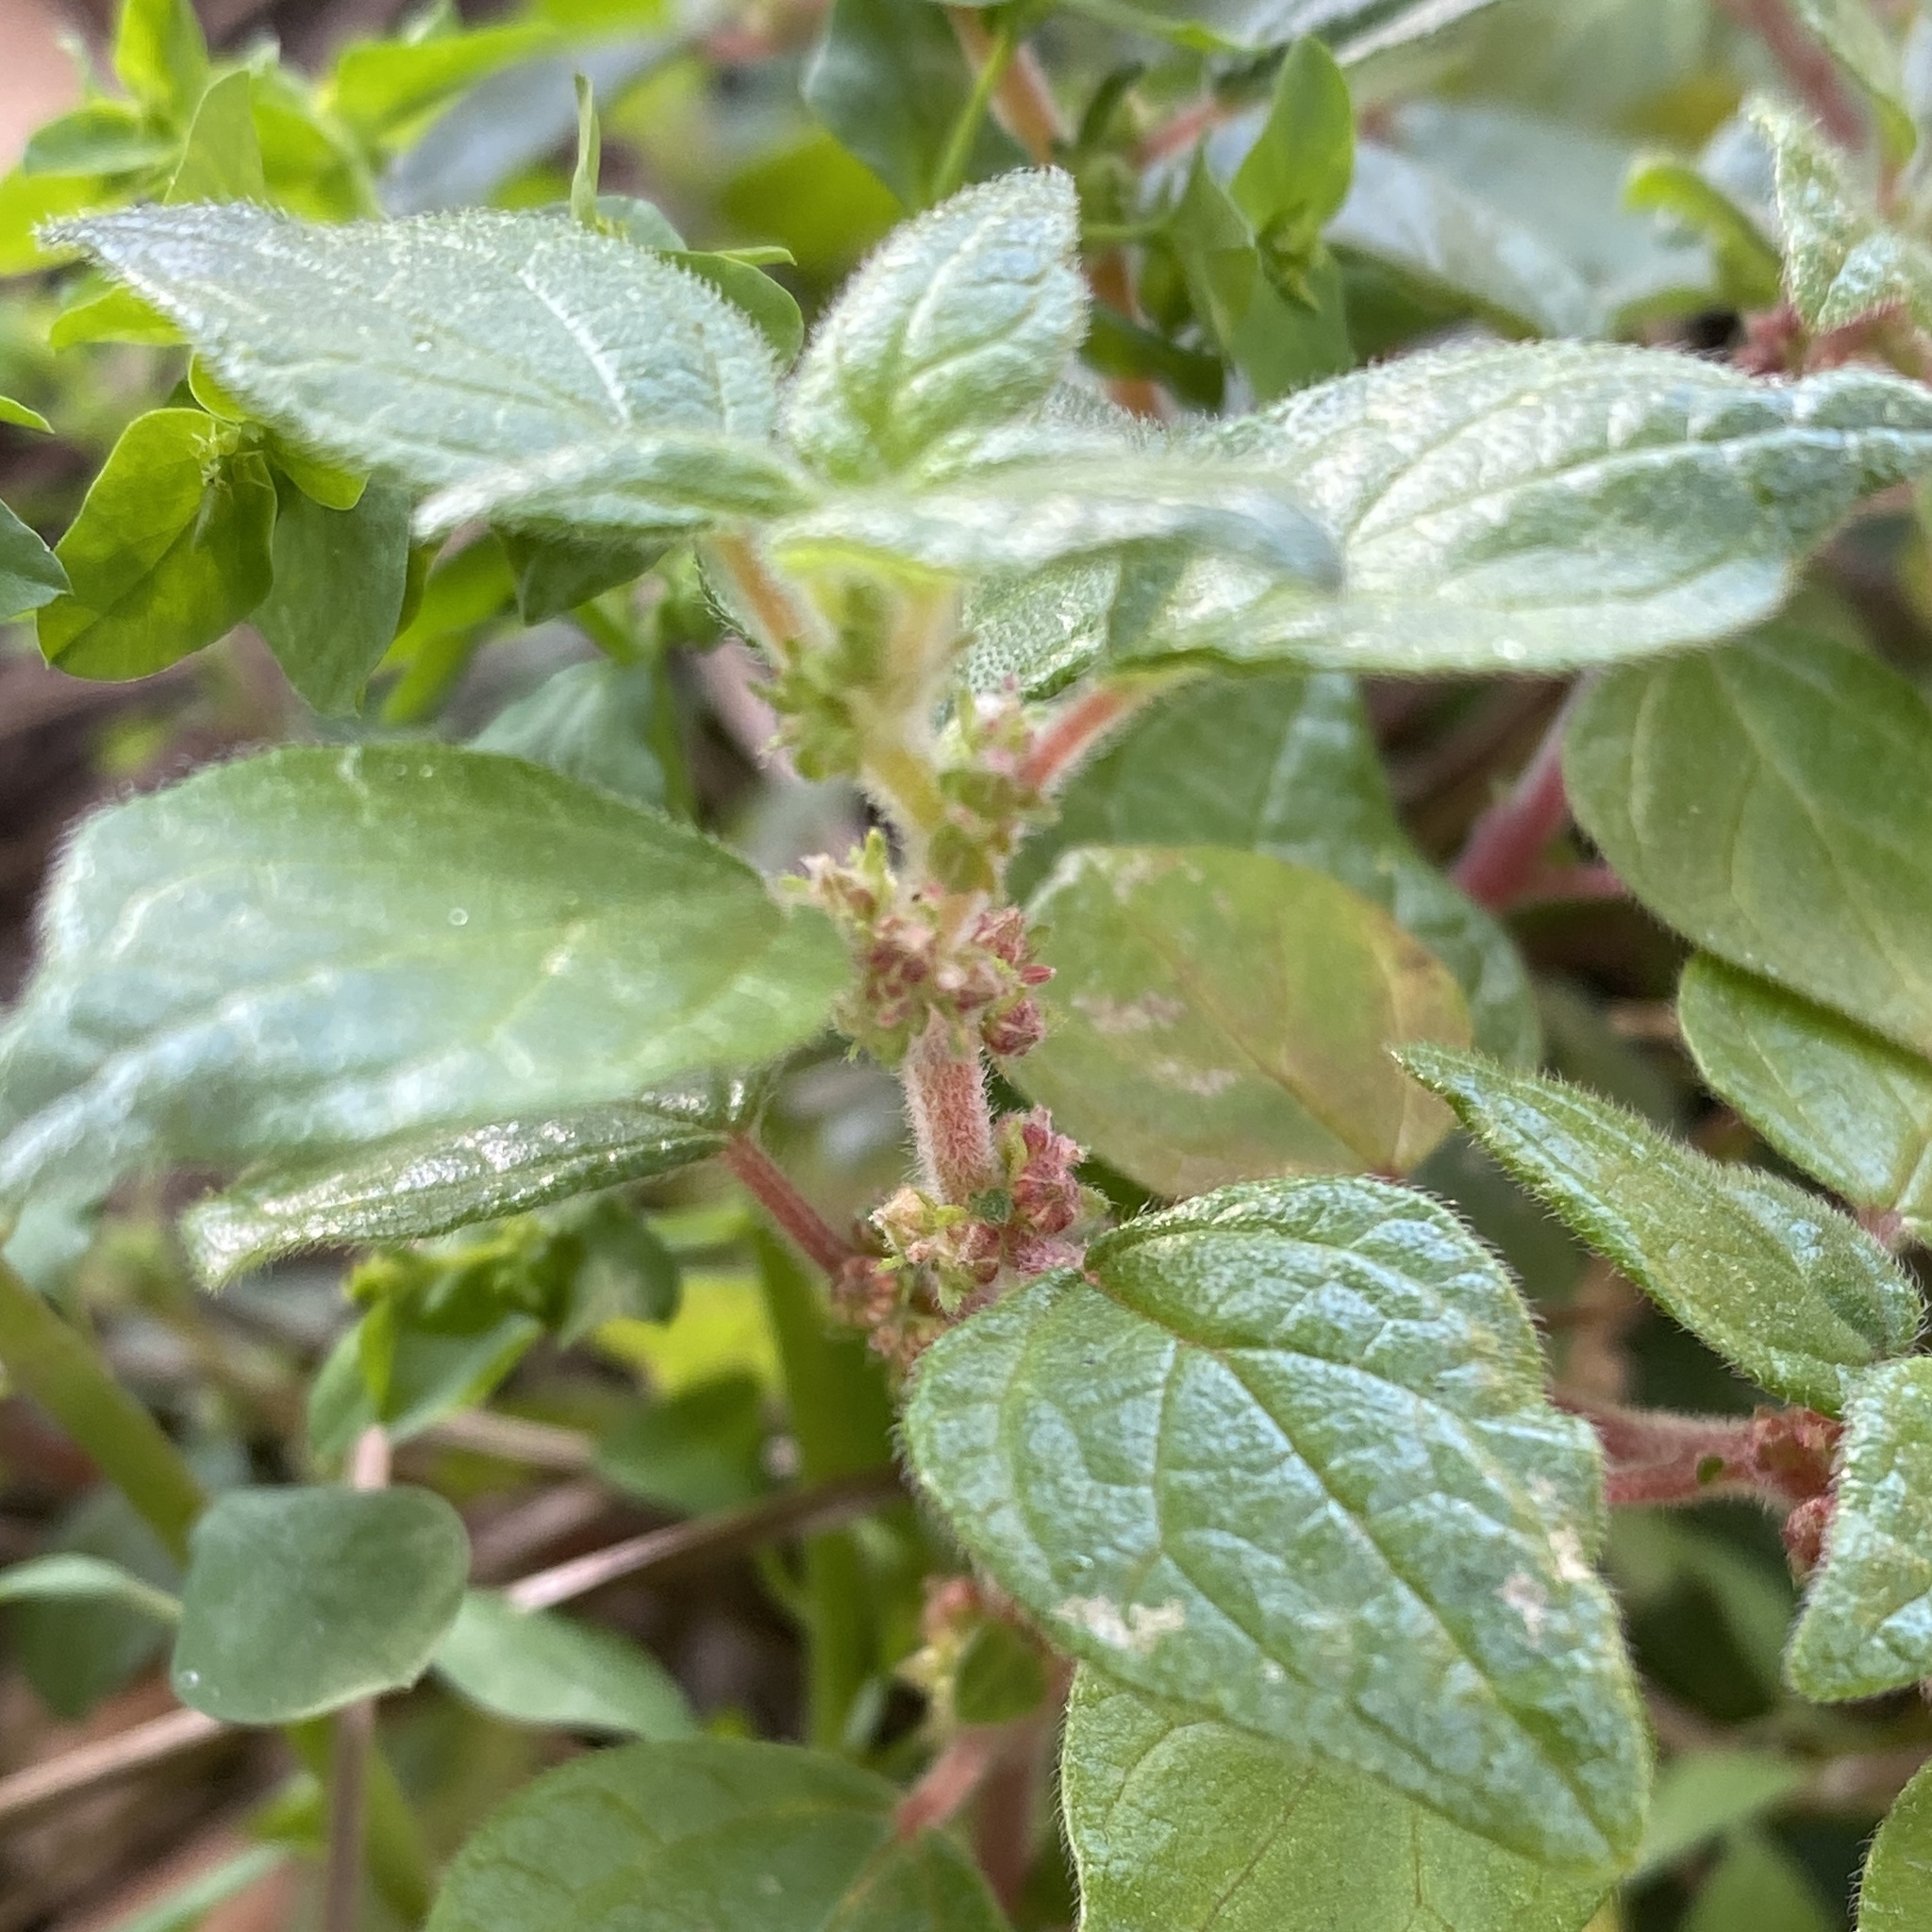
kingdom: Plantae
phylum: Tracheophyta
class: Magnoliopsida
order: Rosales
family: Urticaceae
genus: Parietaria
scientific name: Parietaria judaica
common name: Pellitory-of-the-wall
